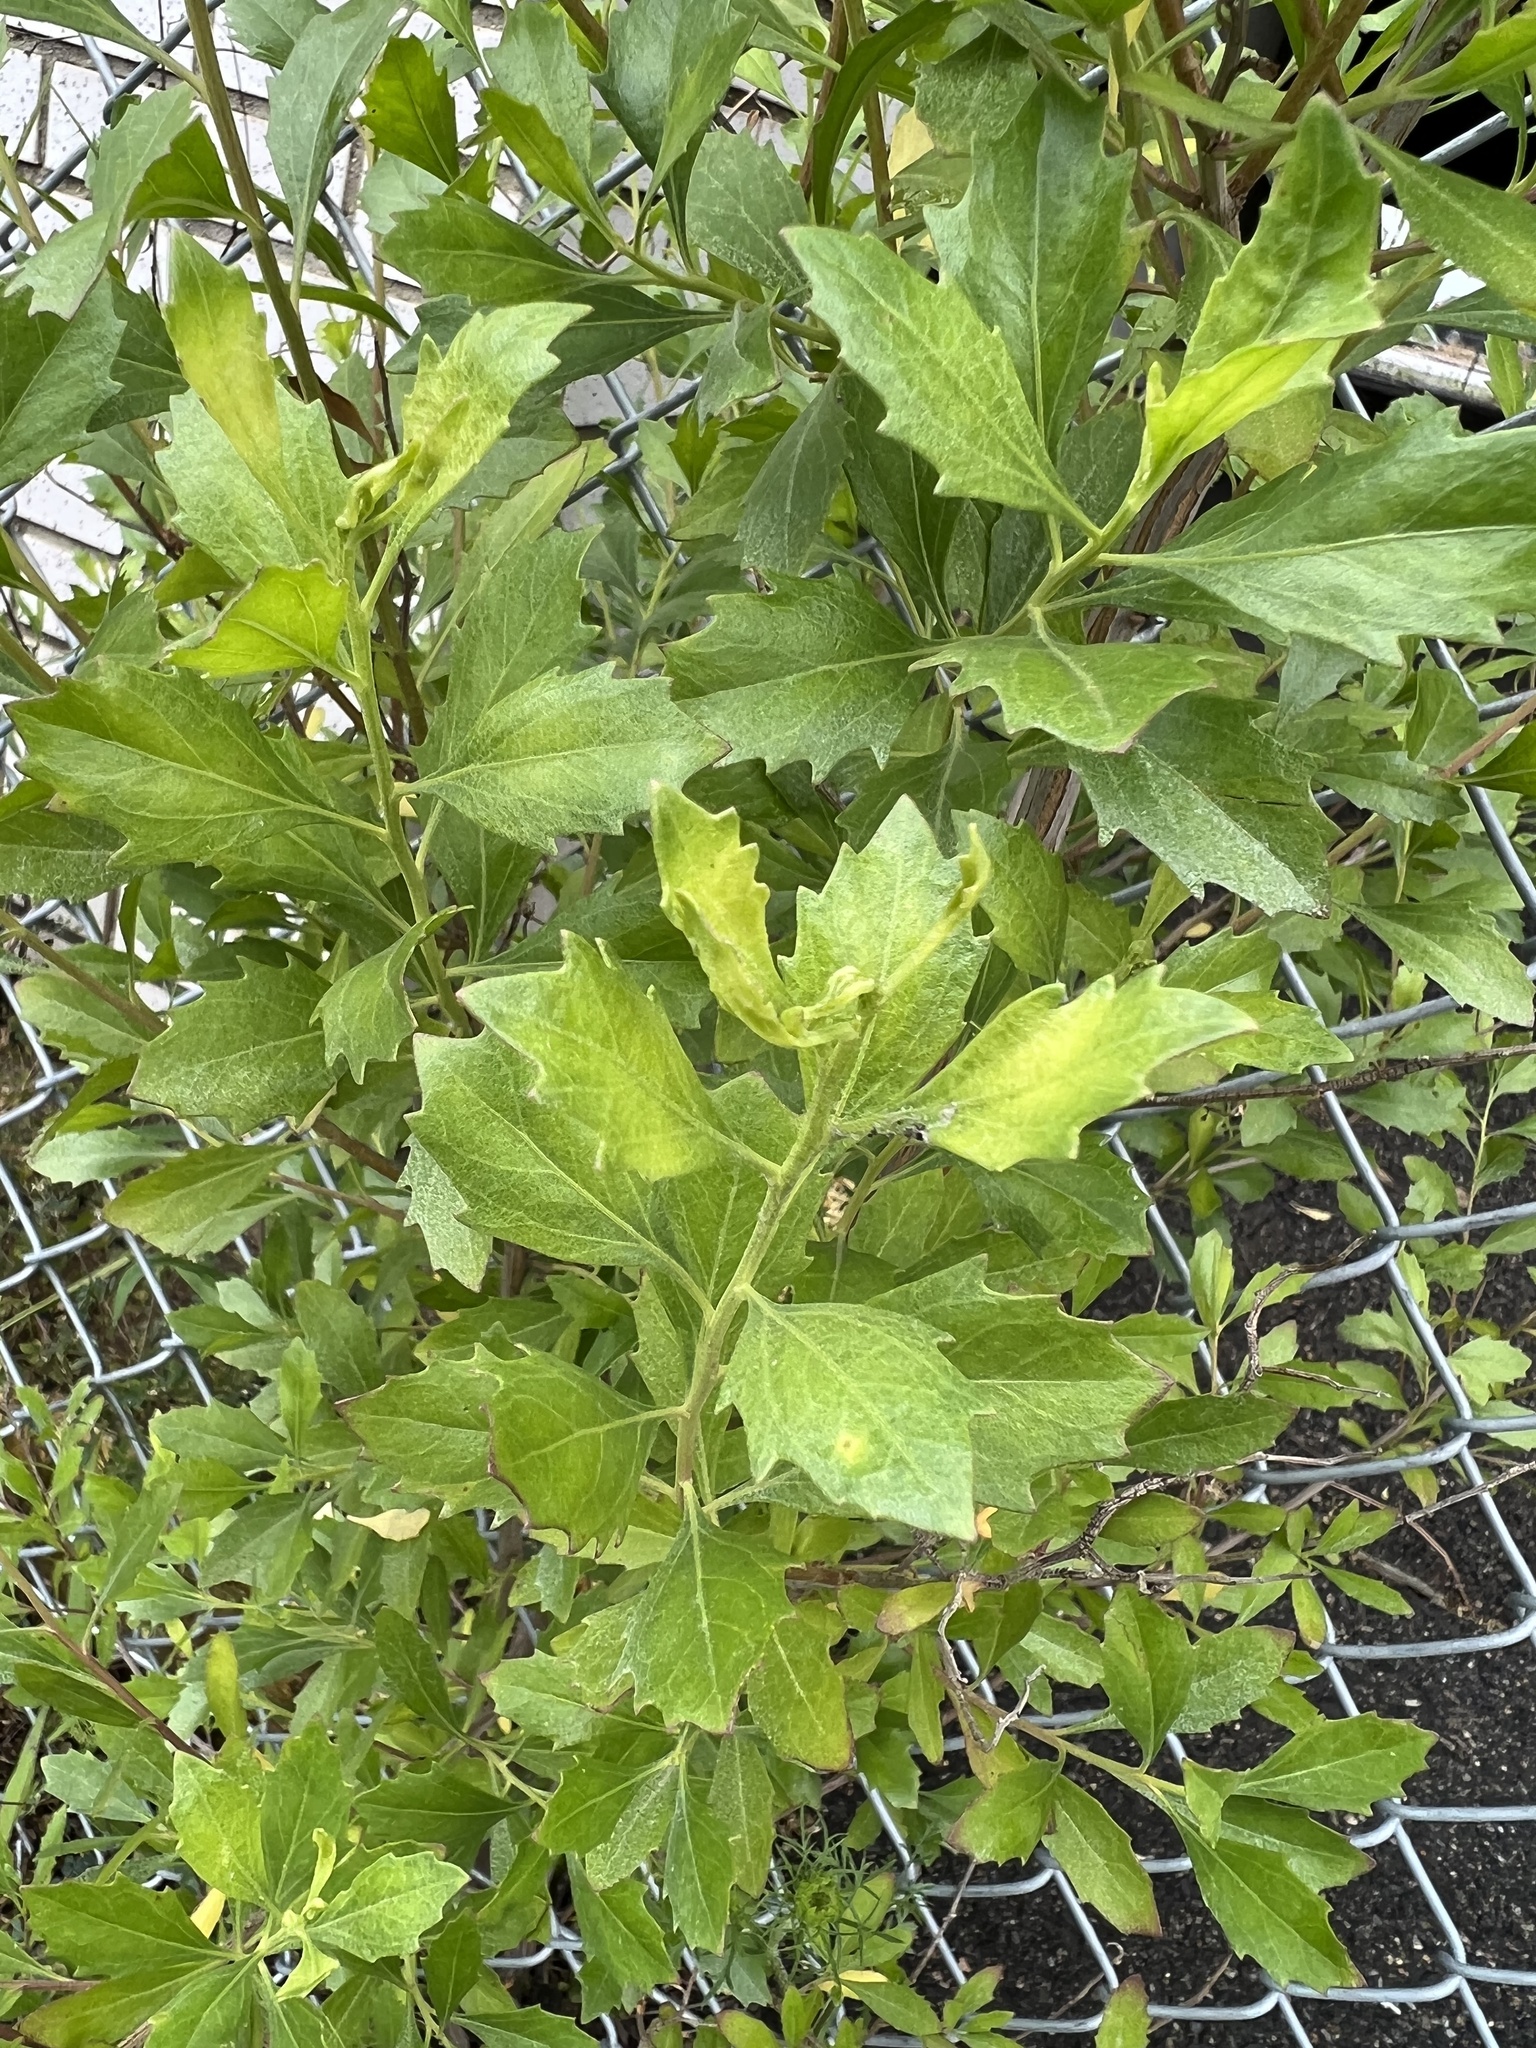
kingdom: Plantae
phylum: Tracheophyta
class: Magnoliopsida
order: Asterales
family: Asteraceae
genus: Baccharis
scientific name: Baccharis halimifolia
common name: Eastern baccharis
